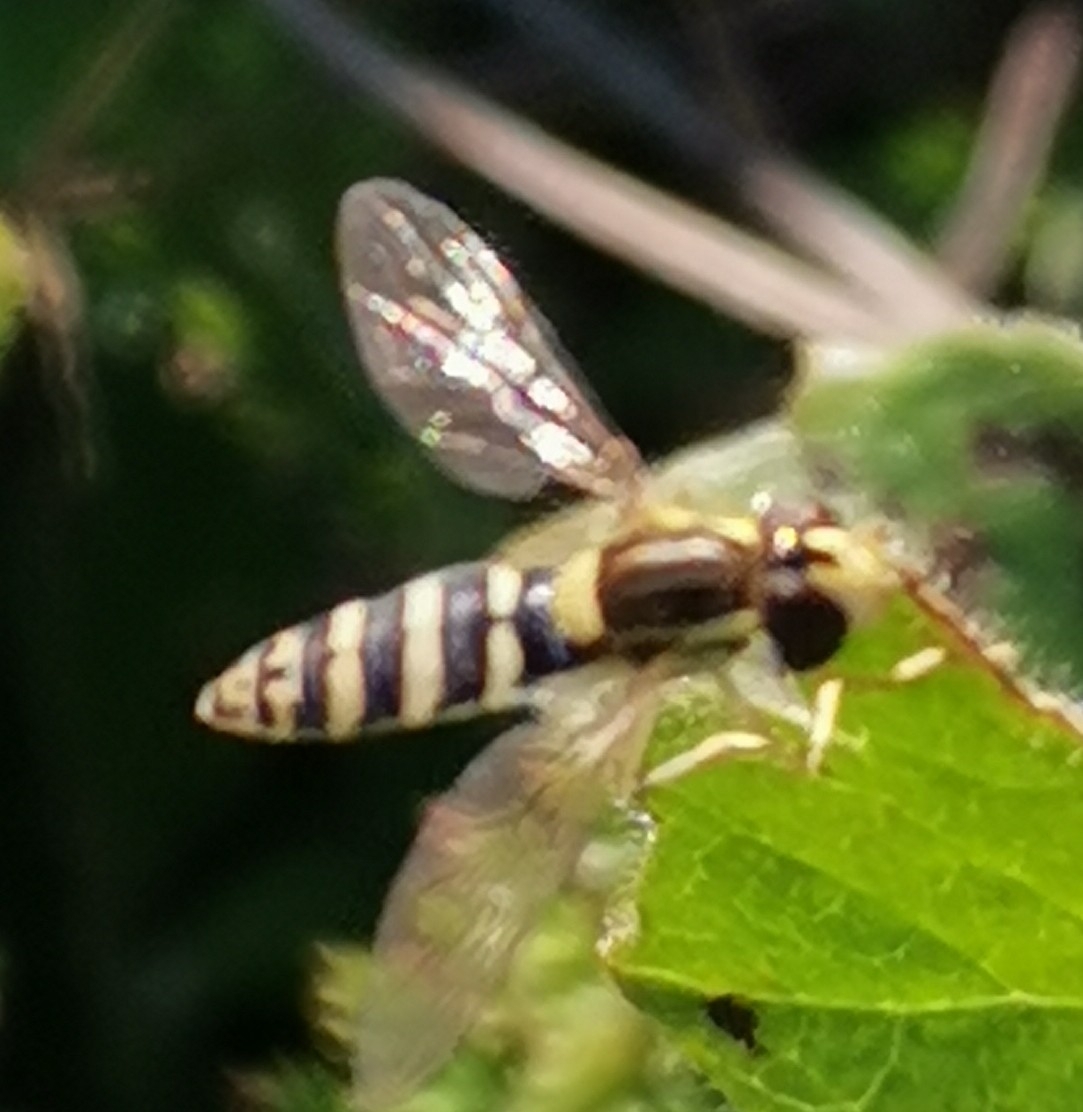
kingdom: Animalia
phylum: Arthropoda
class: Insecta
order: Diptera
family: Syrphidae
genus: Sphaerophoria
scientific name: Sphaerophoria
